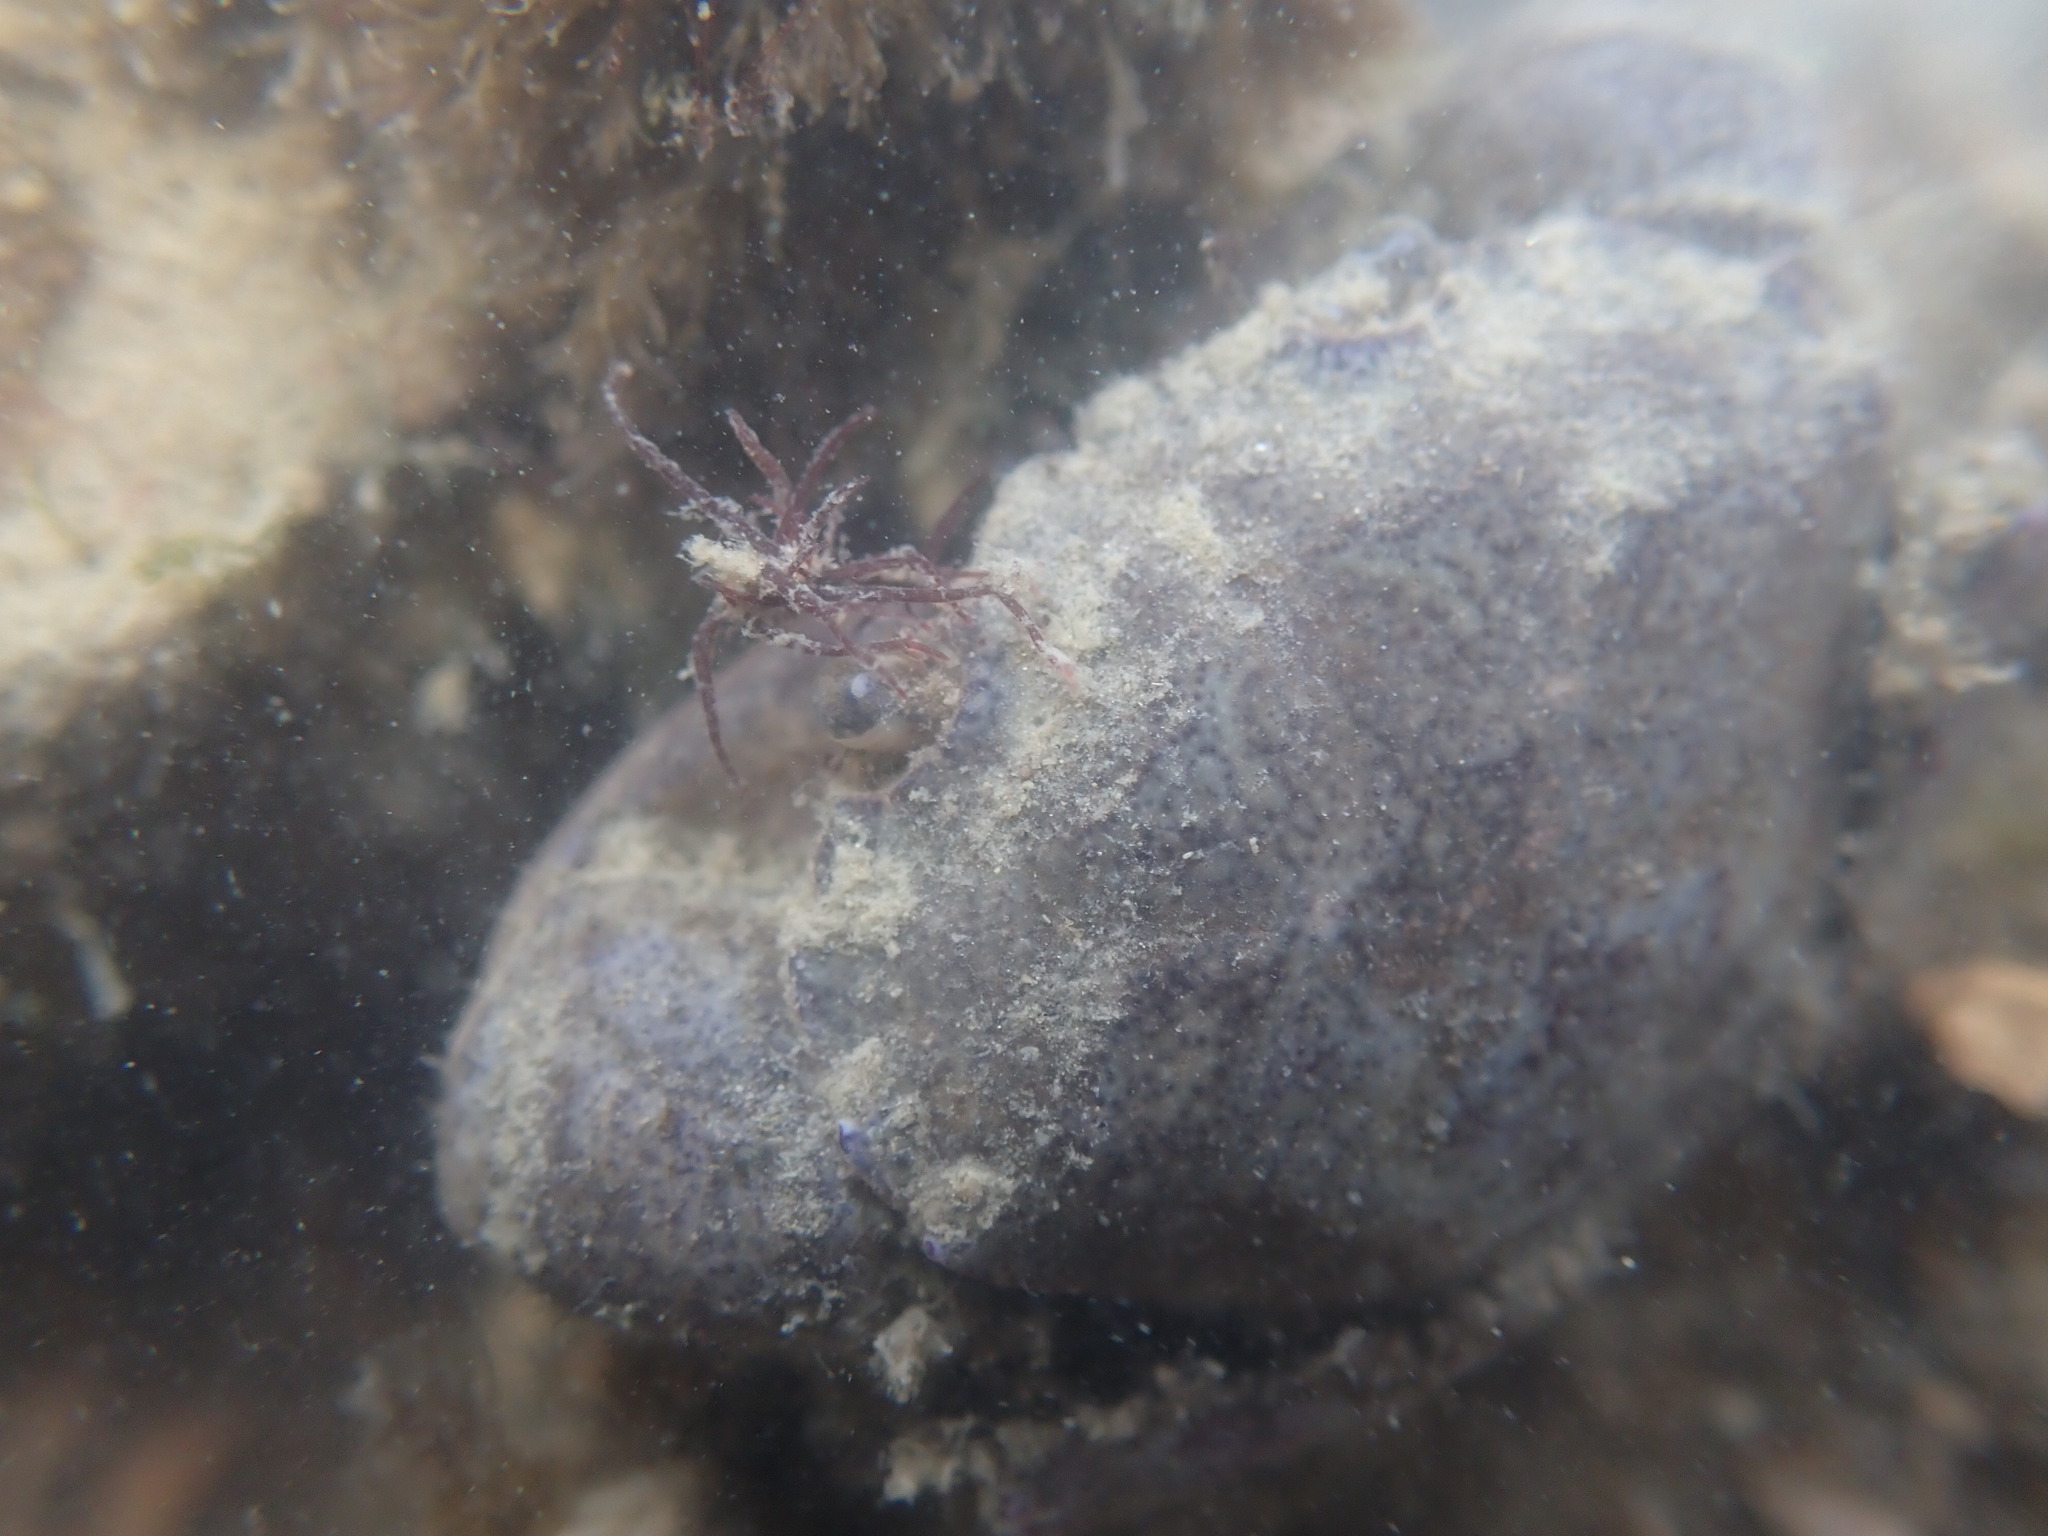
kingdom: Animalia
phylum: Arthropoda
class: Malacostraca
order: Decapoda
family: Pilumnidae
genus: Pilumnopeus
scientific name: Pilumnopeus serratifrons
